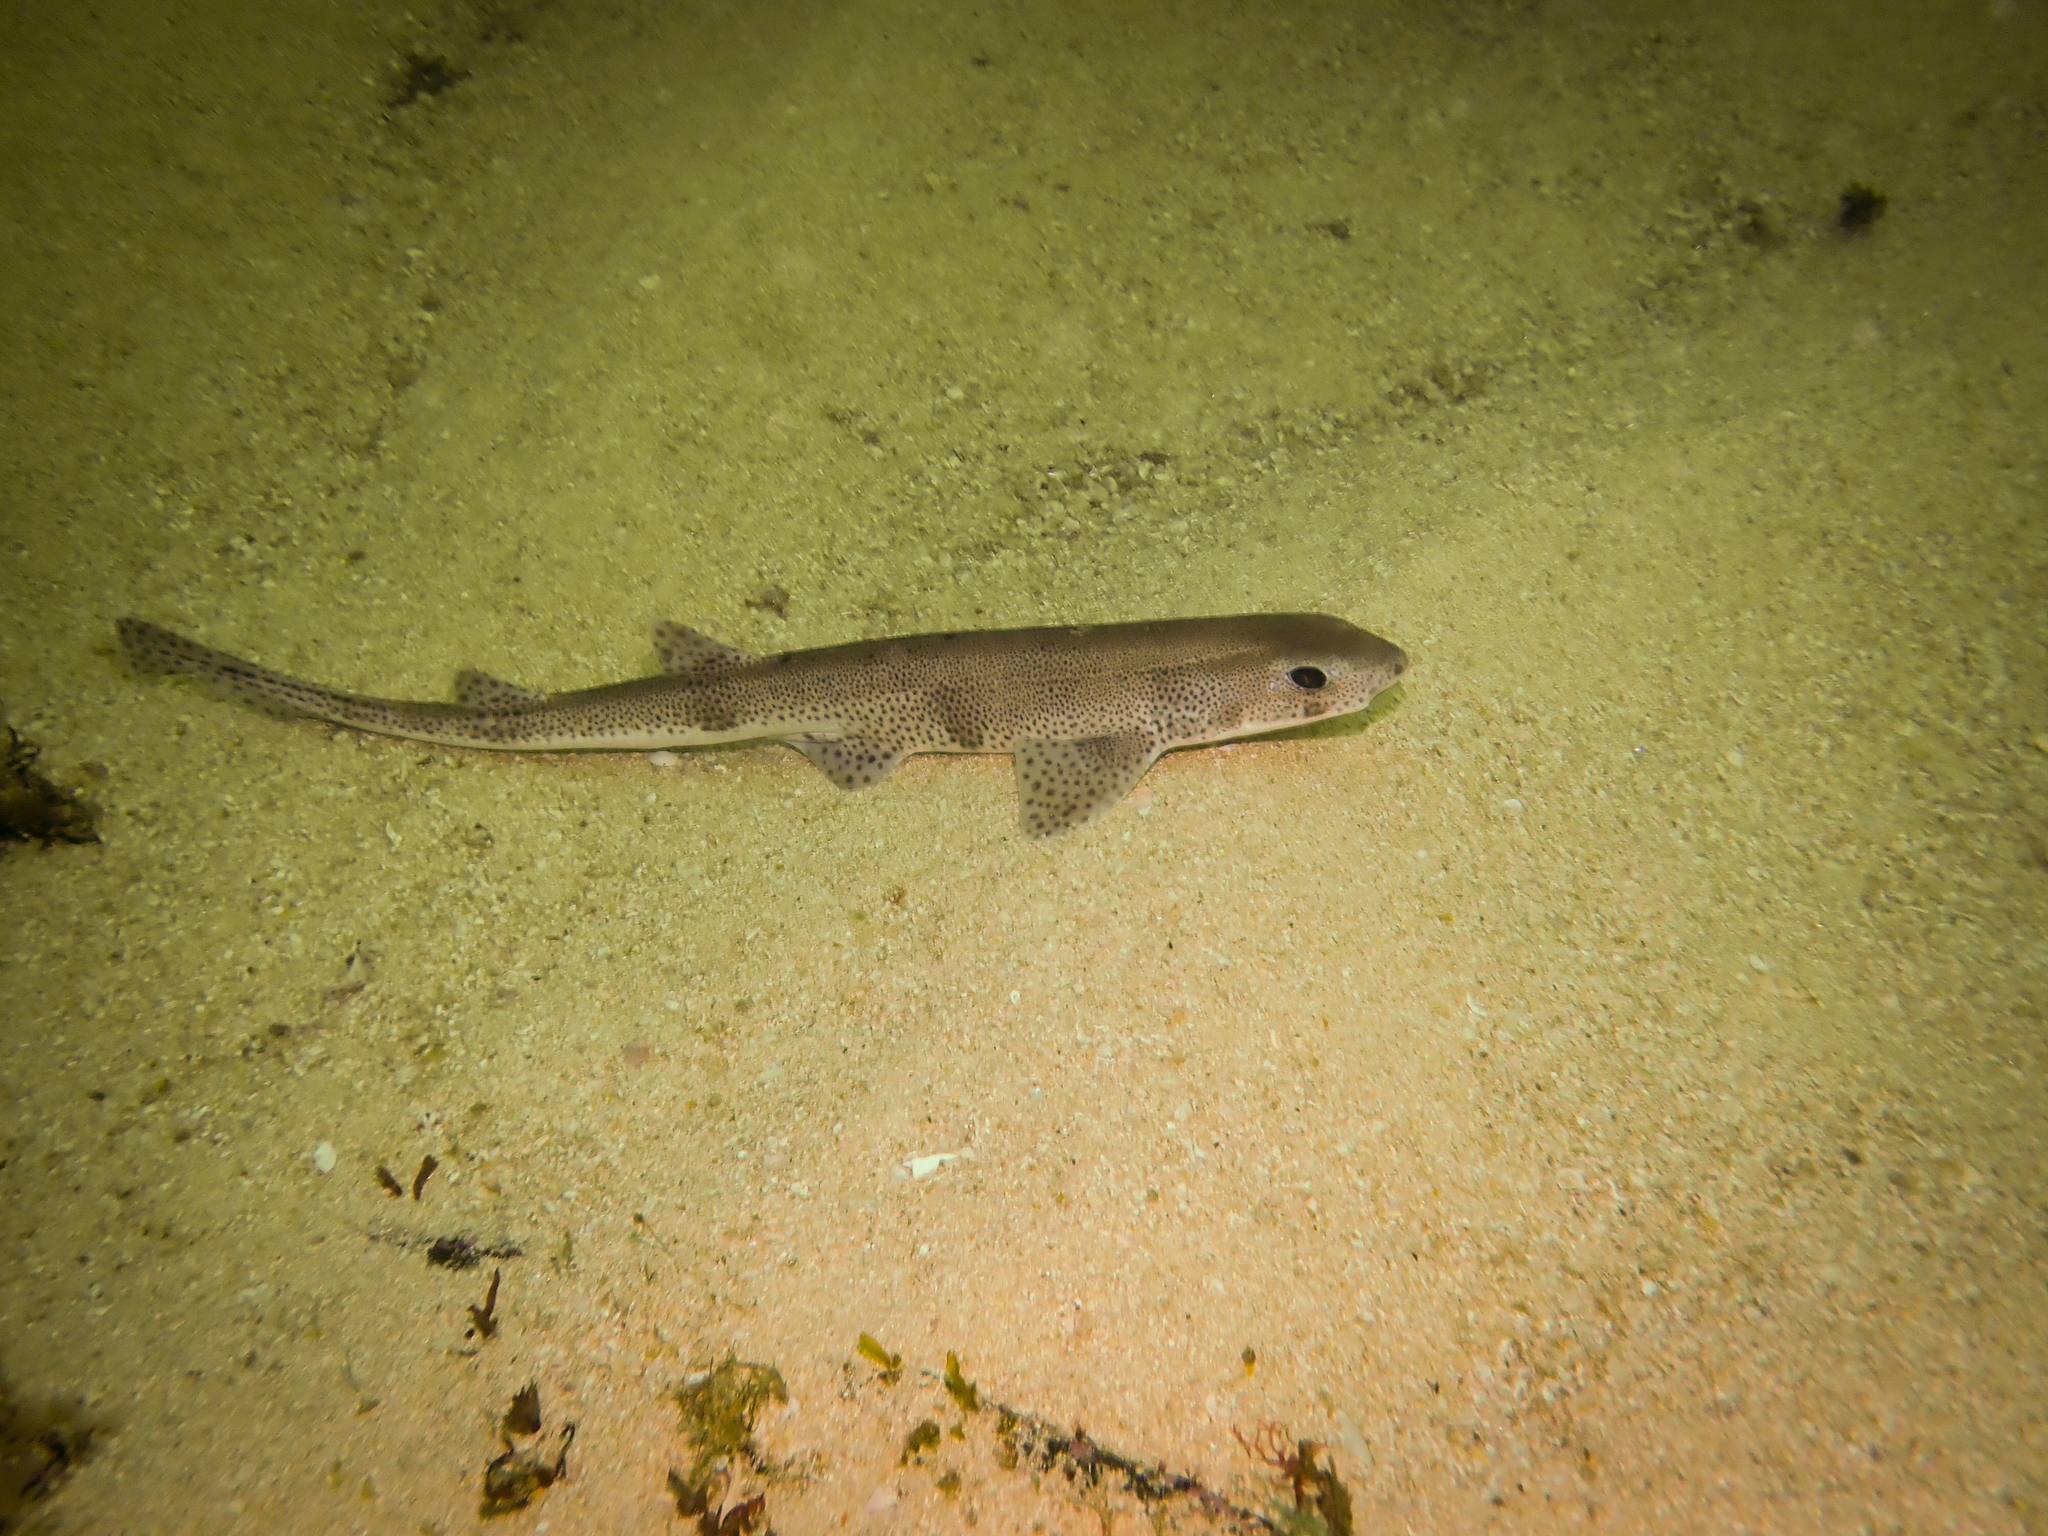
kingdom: Animalia
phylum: Chordata
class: Elasmobranchii
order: Carcharhiniformes
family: Scyliorhinidae
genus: Scyliorhinus
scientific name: Scyliorhinus canicula
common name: Lesser spotted dogfish
